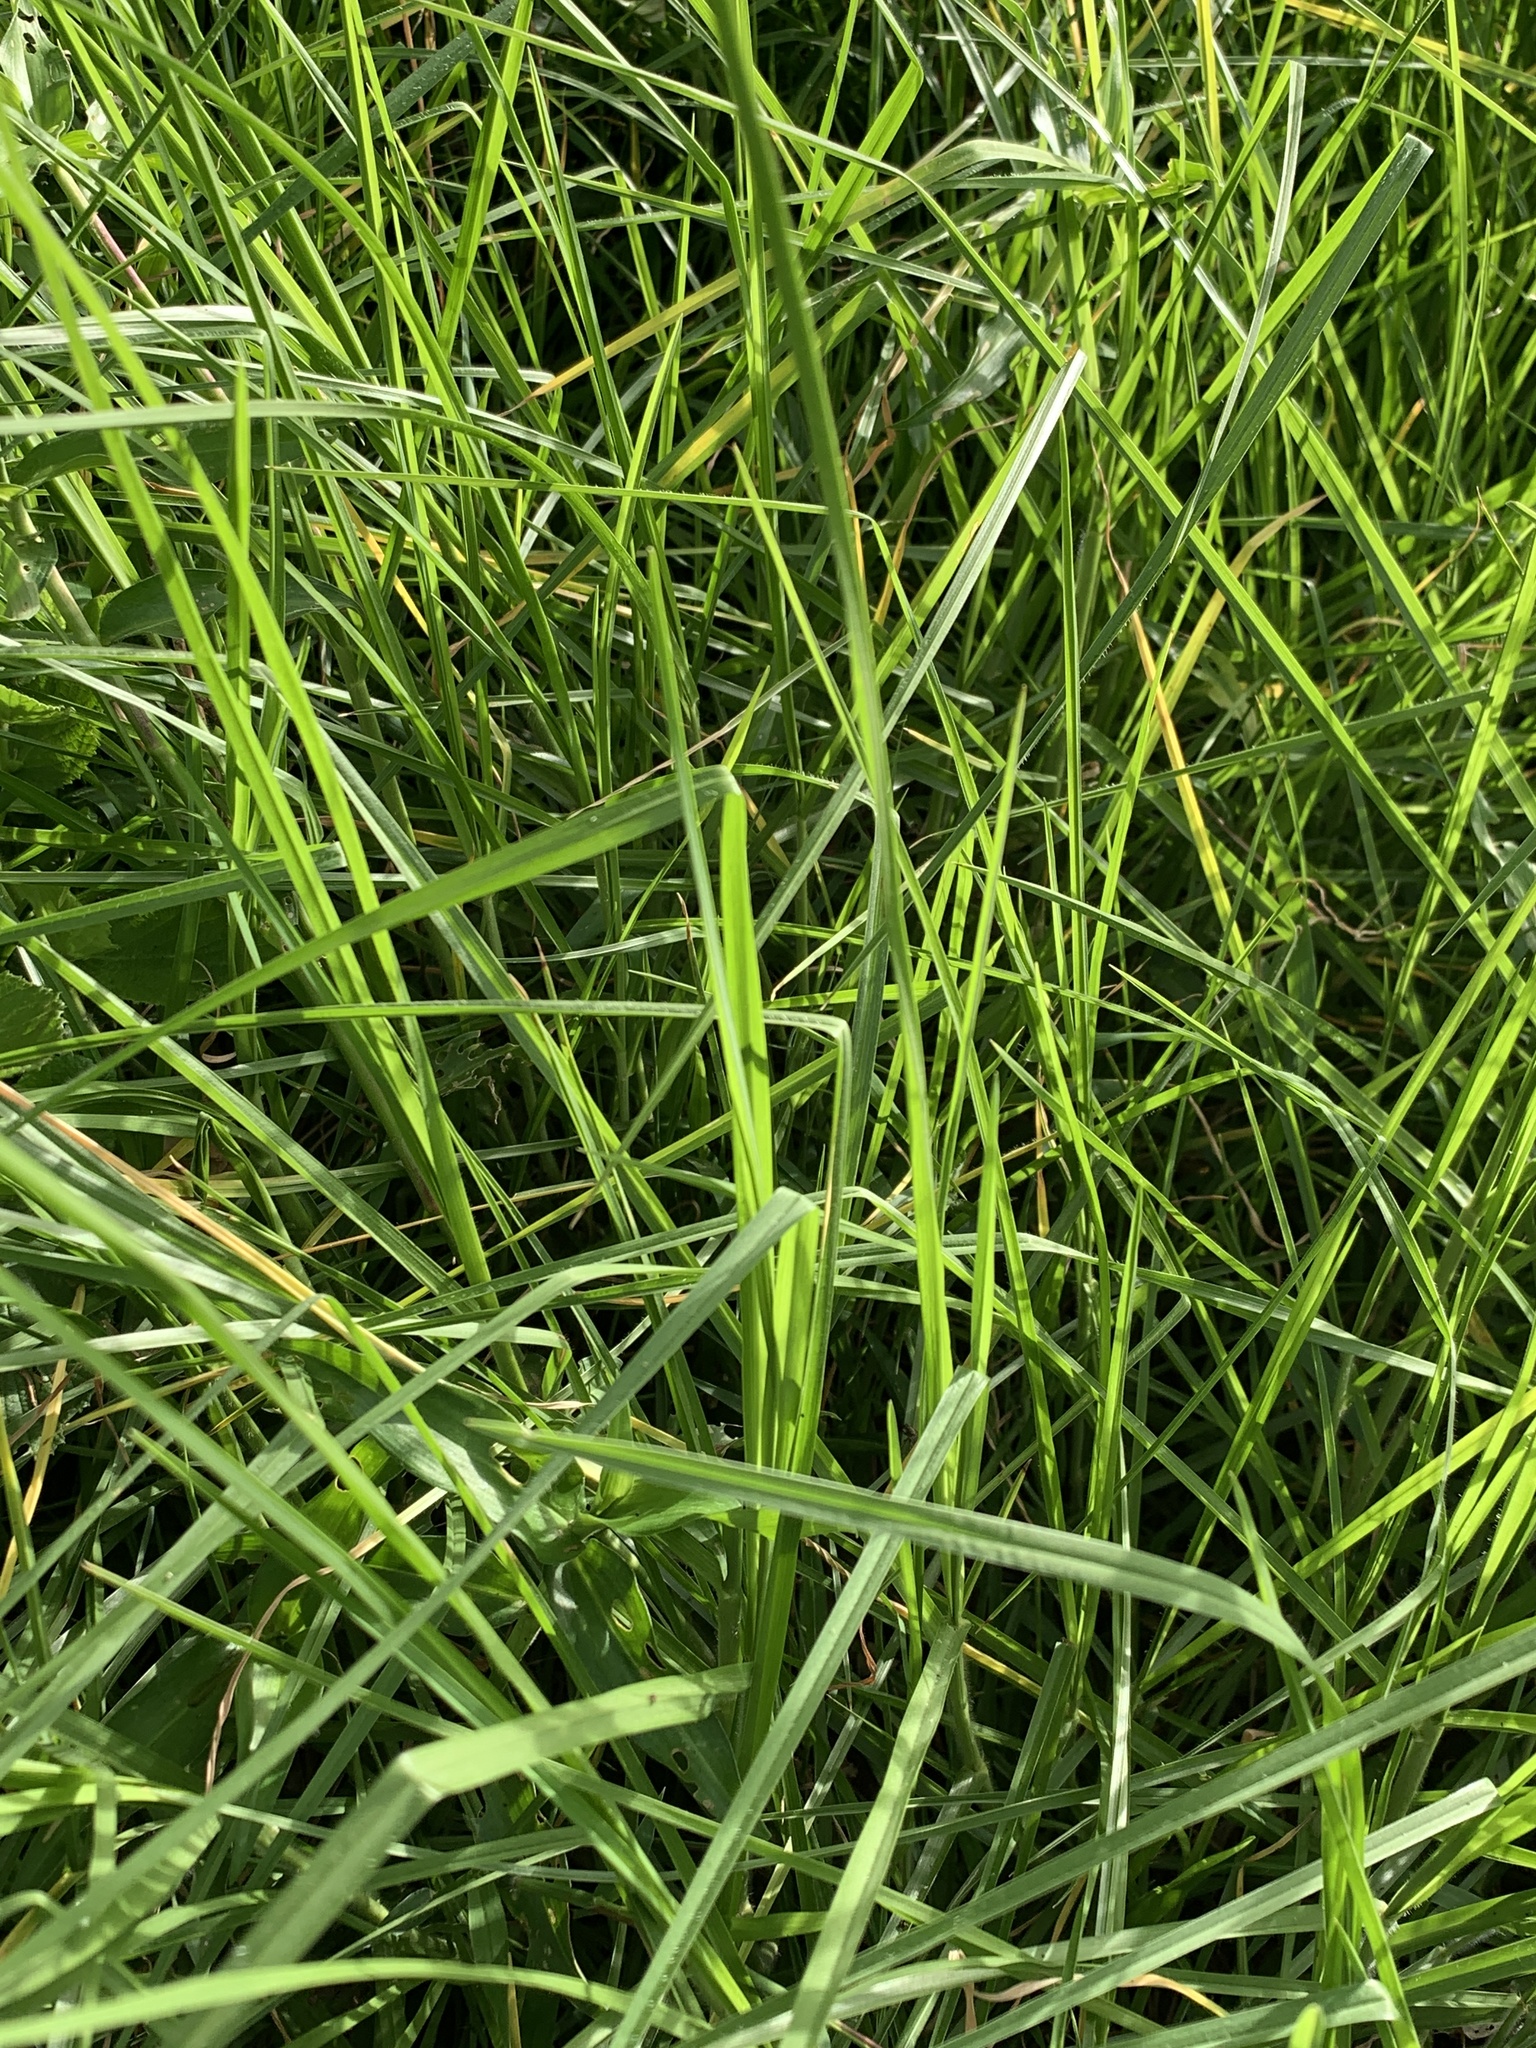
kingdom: Plantae
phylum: Tracheophyta
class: Liliopsida
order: Poales
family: Poaceae
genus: Cenchrus
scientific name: Cenchrus clandestinus
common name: Kikuyugrass
